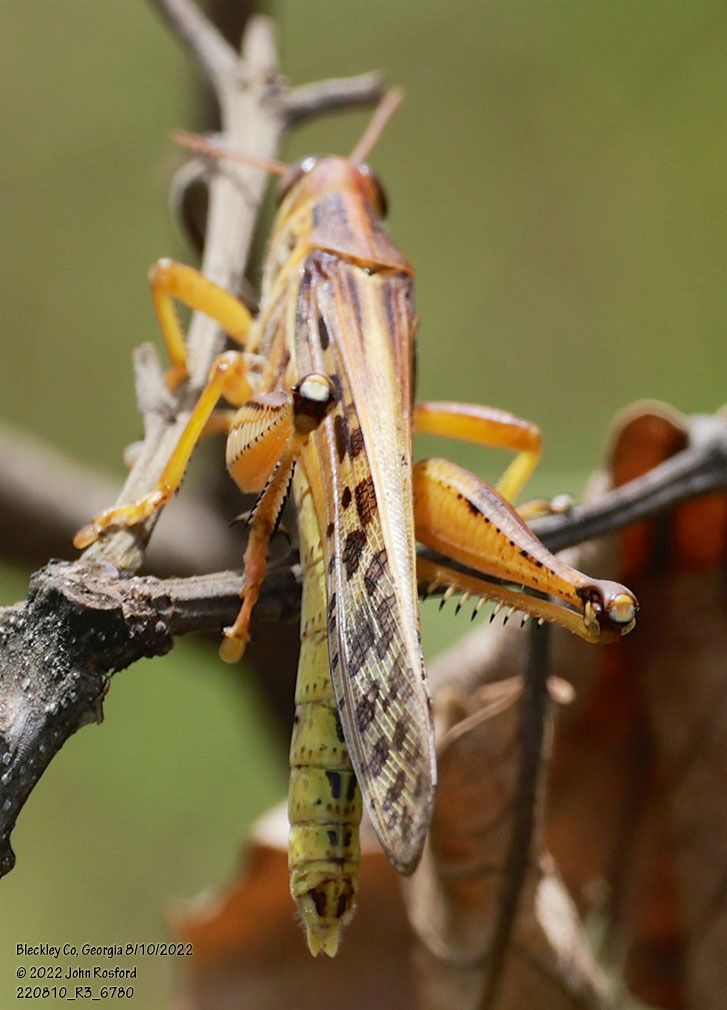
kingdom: Animalia
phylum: Arthropoda
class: Insecta
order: Orthoptera
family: Acrididae
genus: Schistocerca
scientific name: Schistocerca americana
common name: American bird locust
